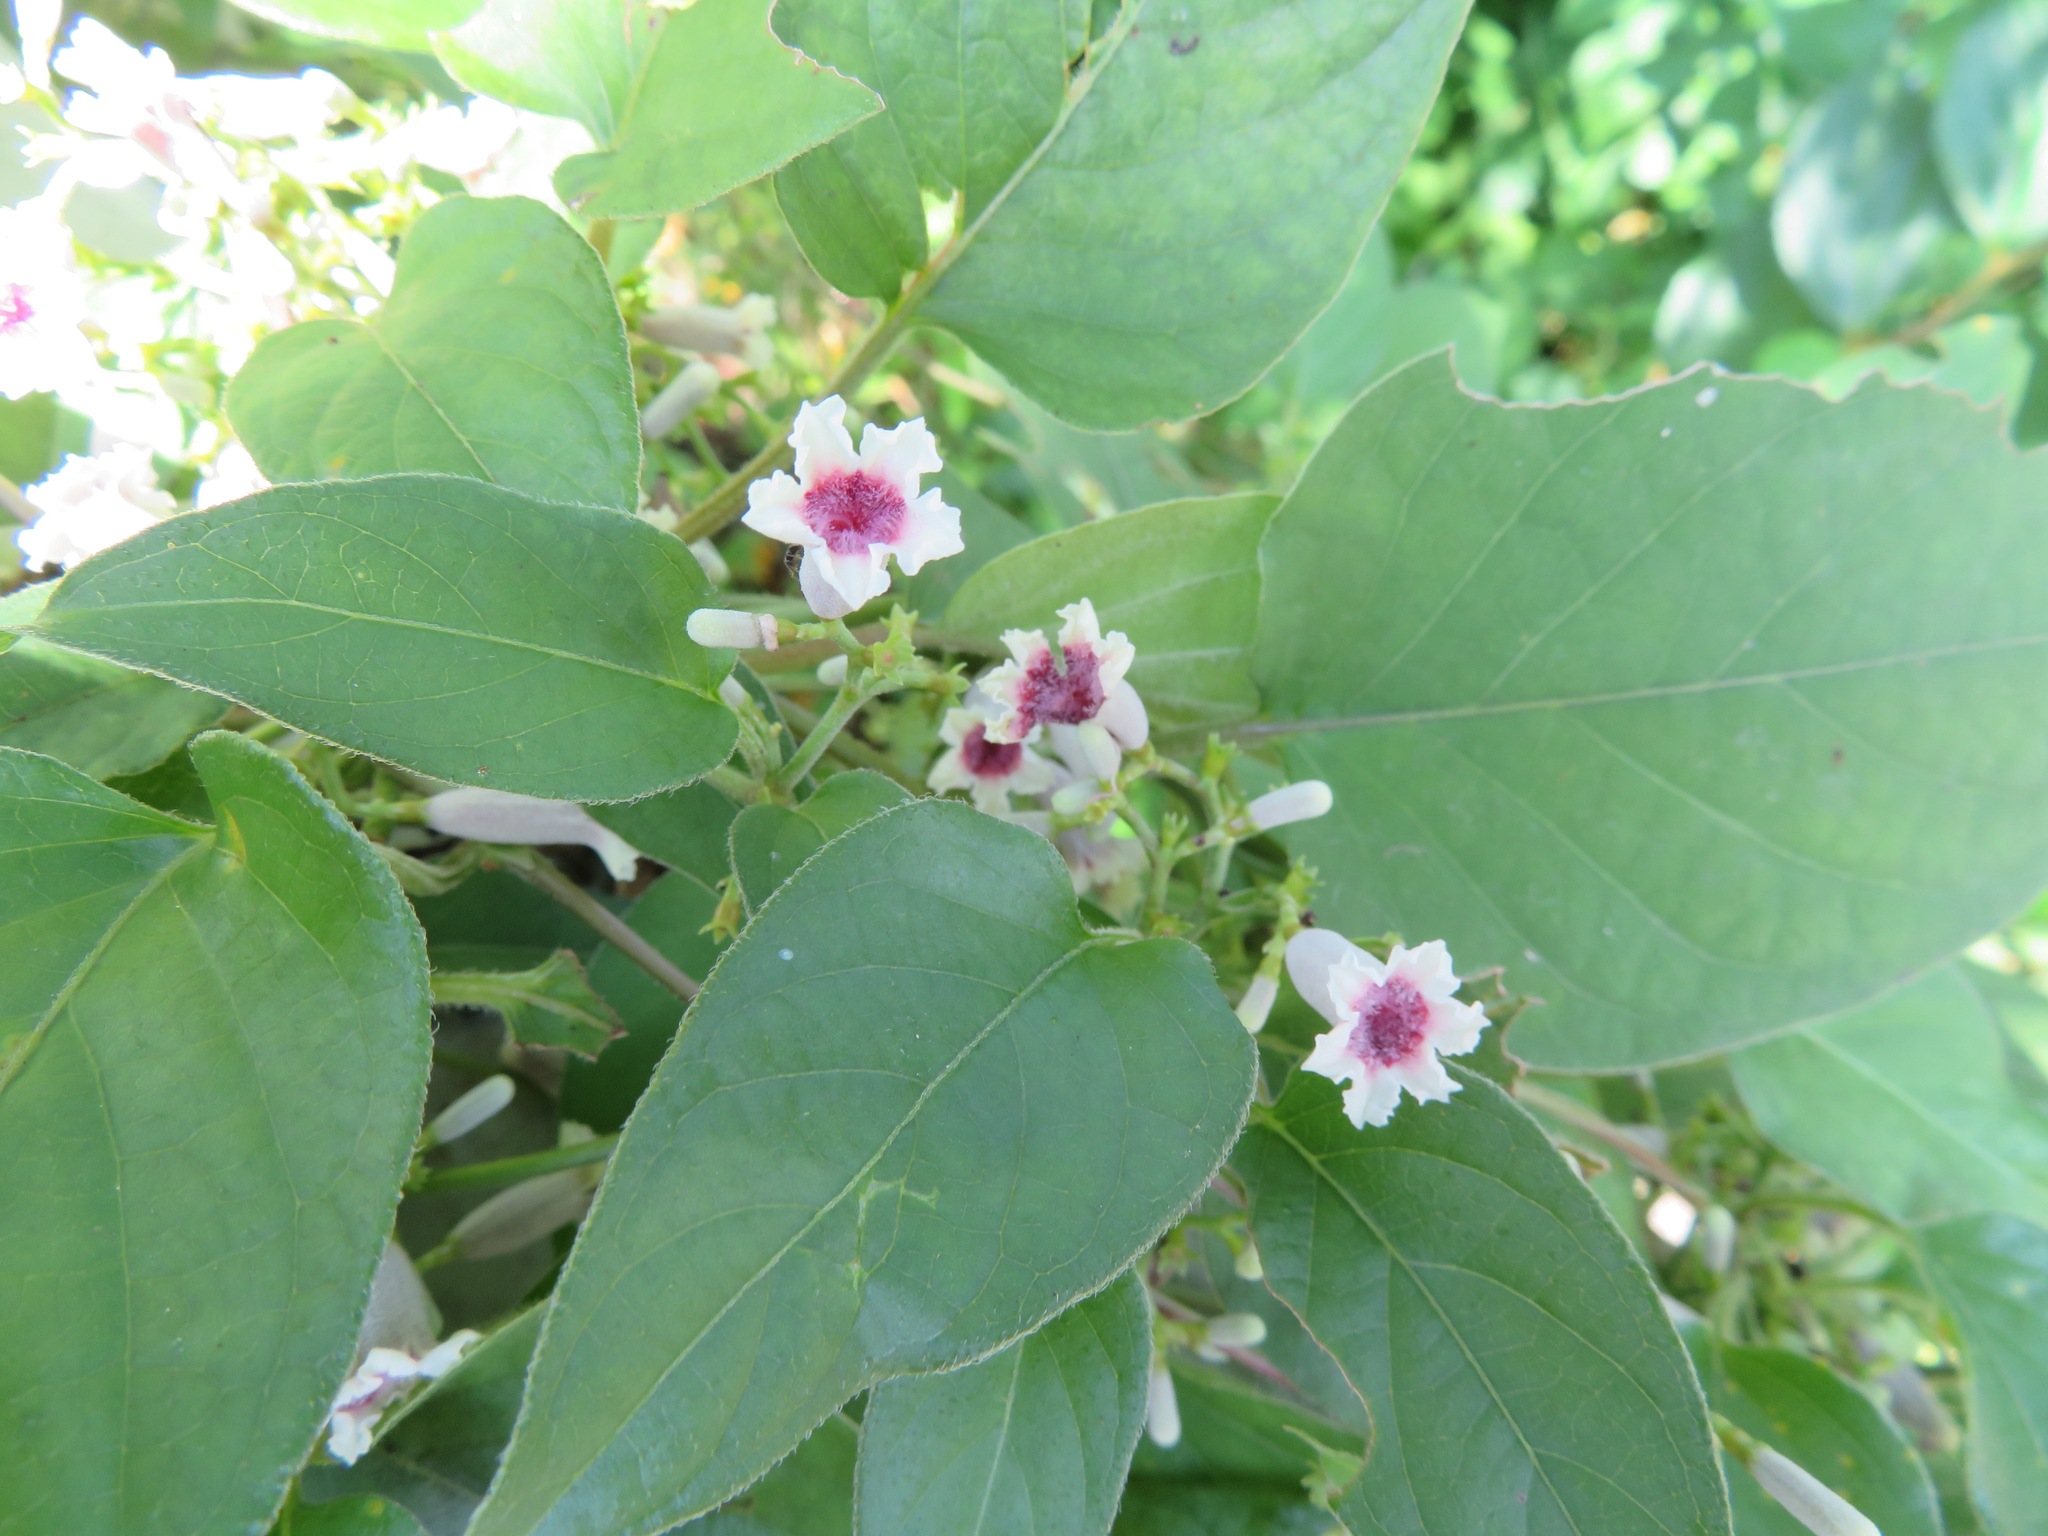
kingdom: Plantae
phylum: Tracheophyta
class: Magnoliopsida
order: Gentianales
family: Rubiaceae
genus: Paederia
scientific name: Paederia foetida
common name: Stinkvine
